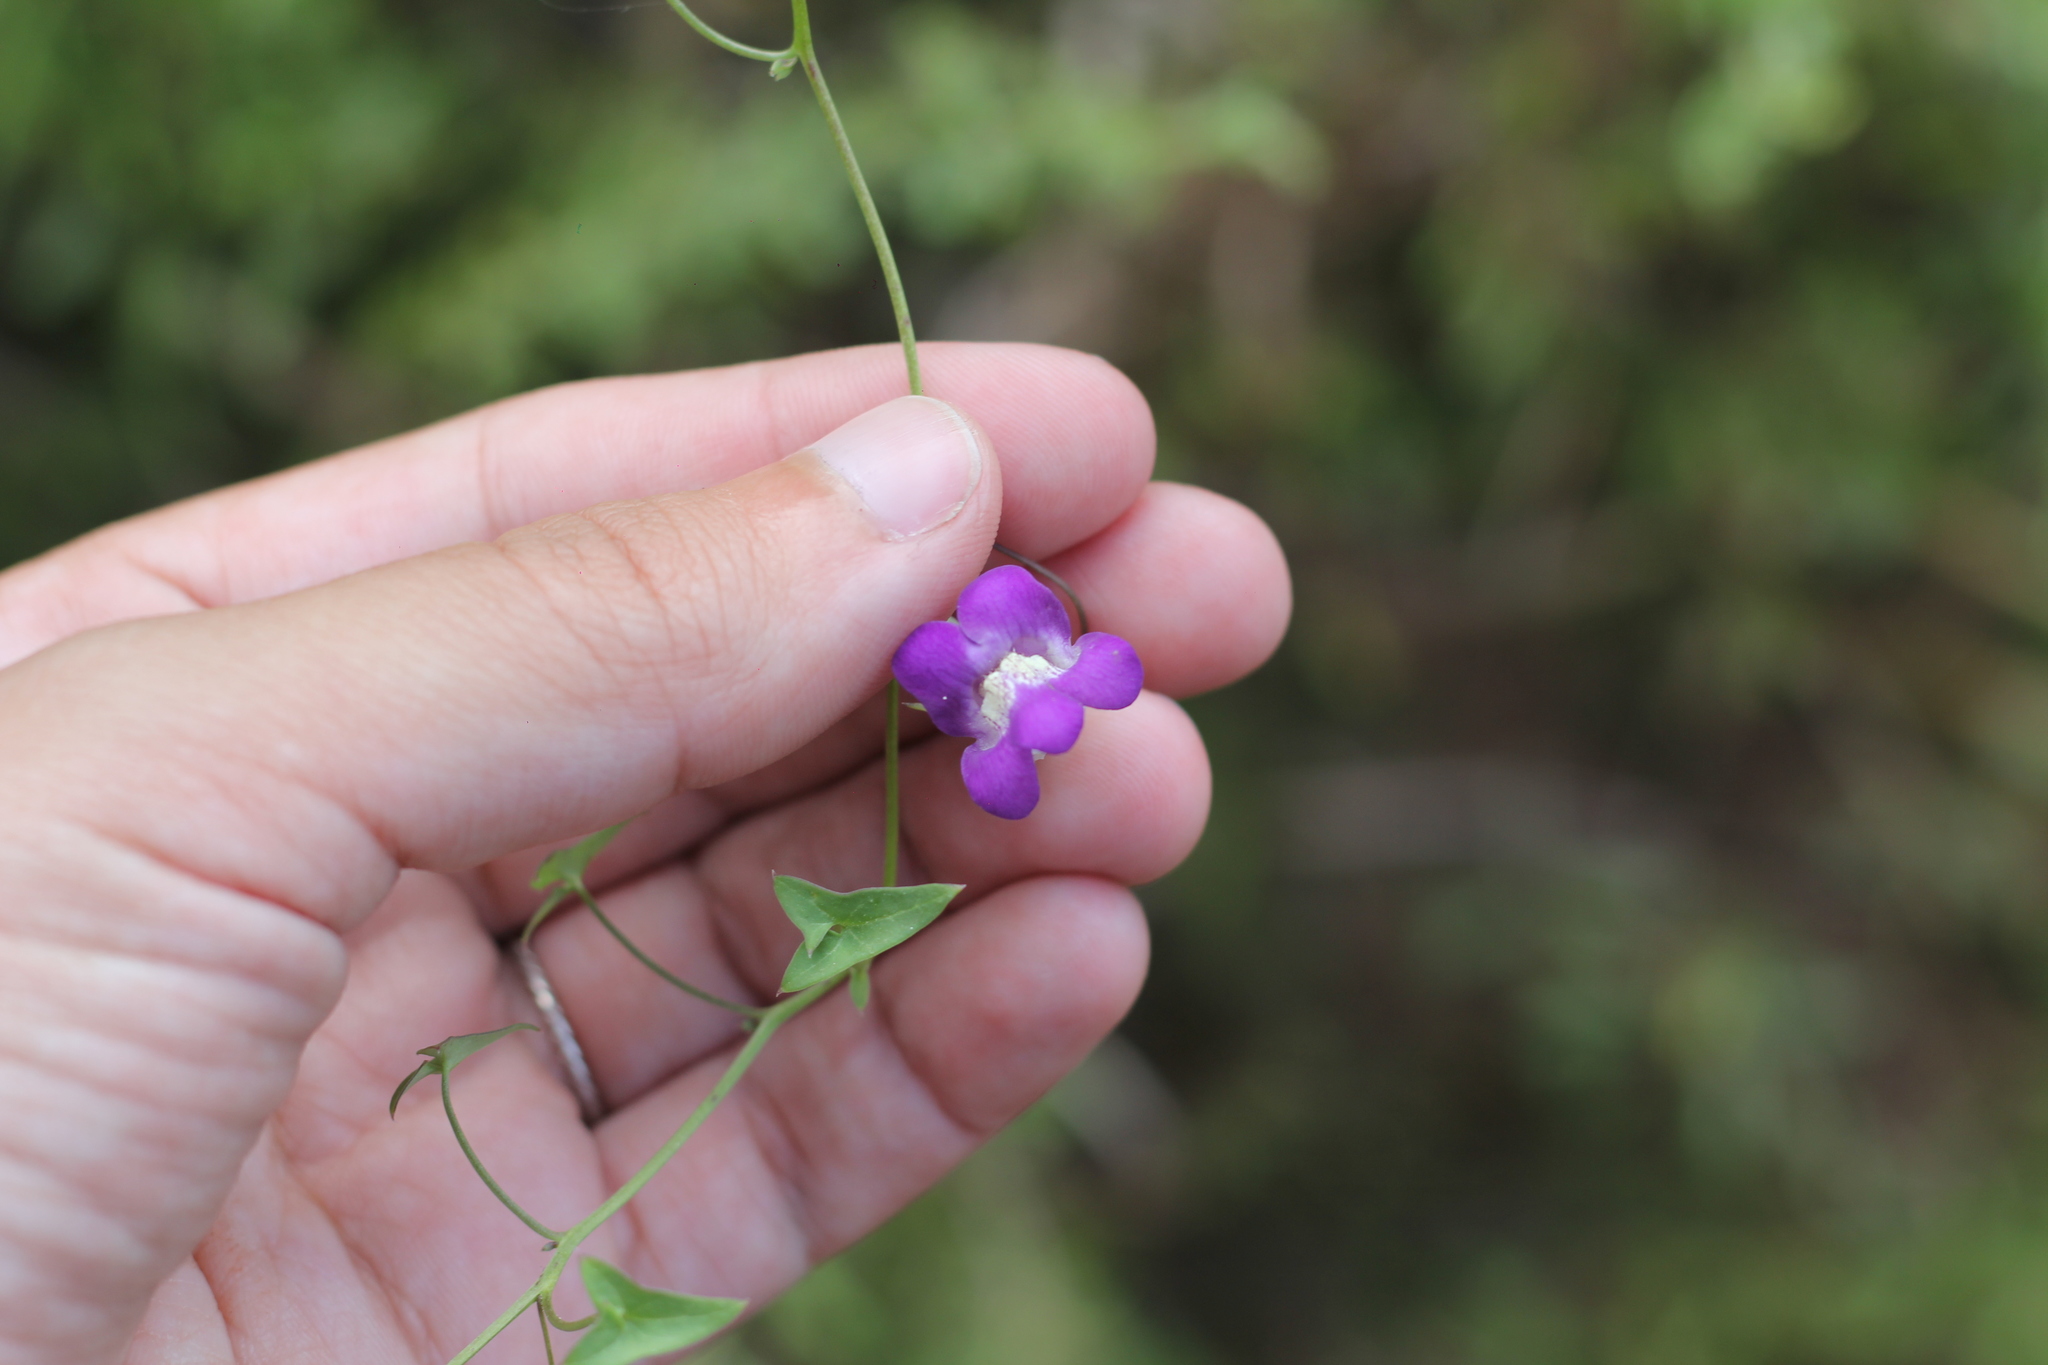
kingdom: Plantae
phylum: Tracheophyta
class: Magnoliopsida
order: Lamiales
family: Plantaginaceae
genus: Maurandella
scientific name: Maurandella antirrhiniflora
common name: Violet twining-snapdragon
